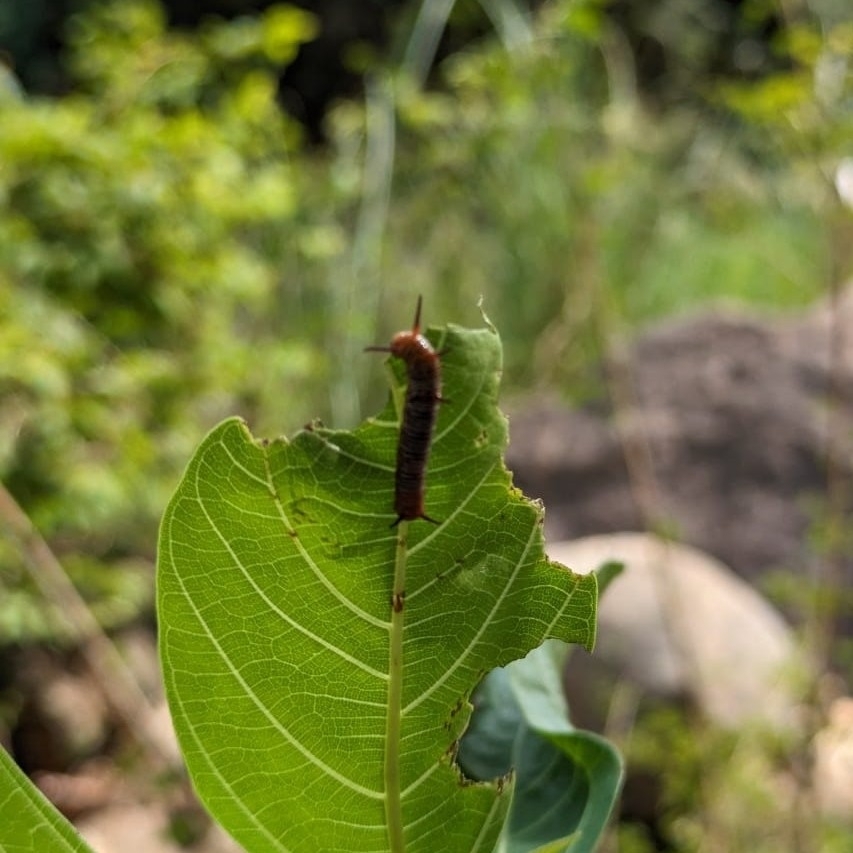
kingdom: Animalia
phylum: Arthropoda
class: Insecta
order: Lepidoptera
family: Nymphalidae
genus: Euploea
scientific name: Euploea core
